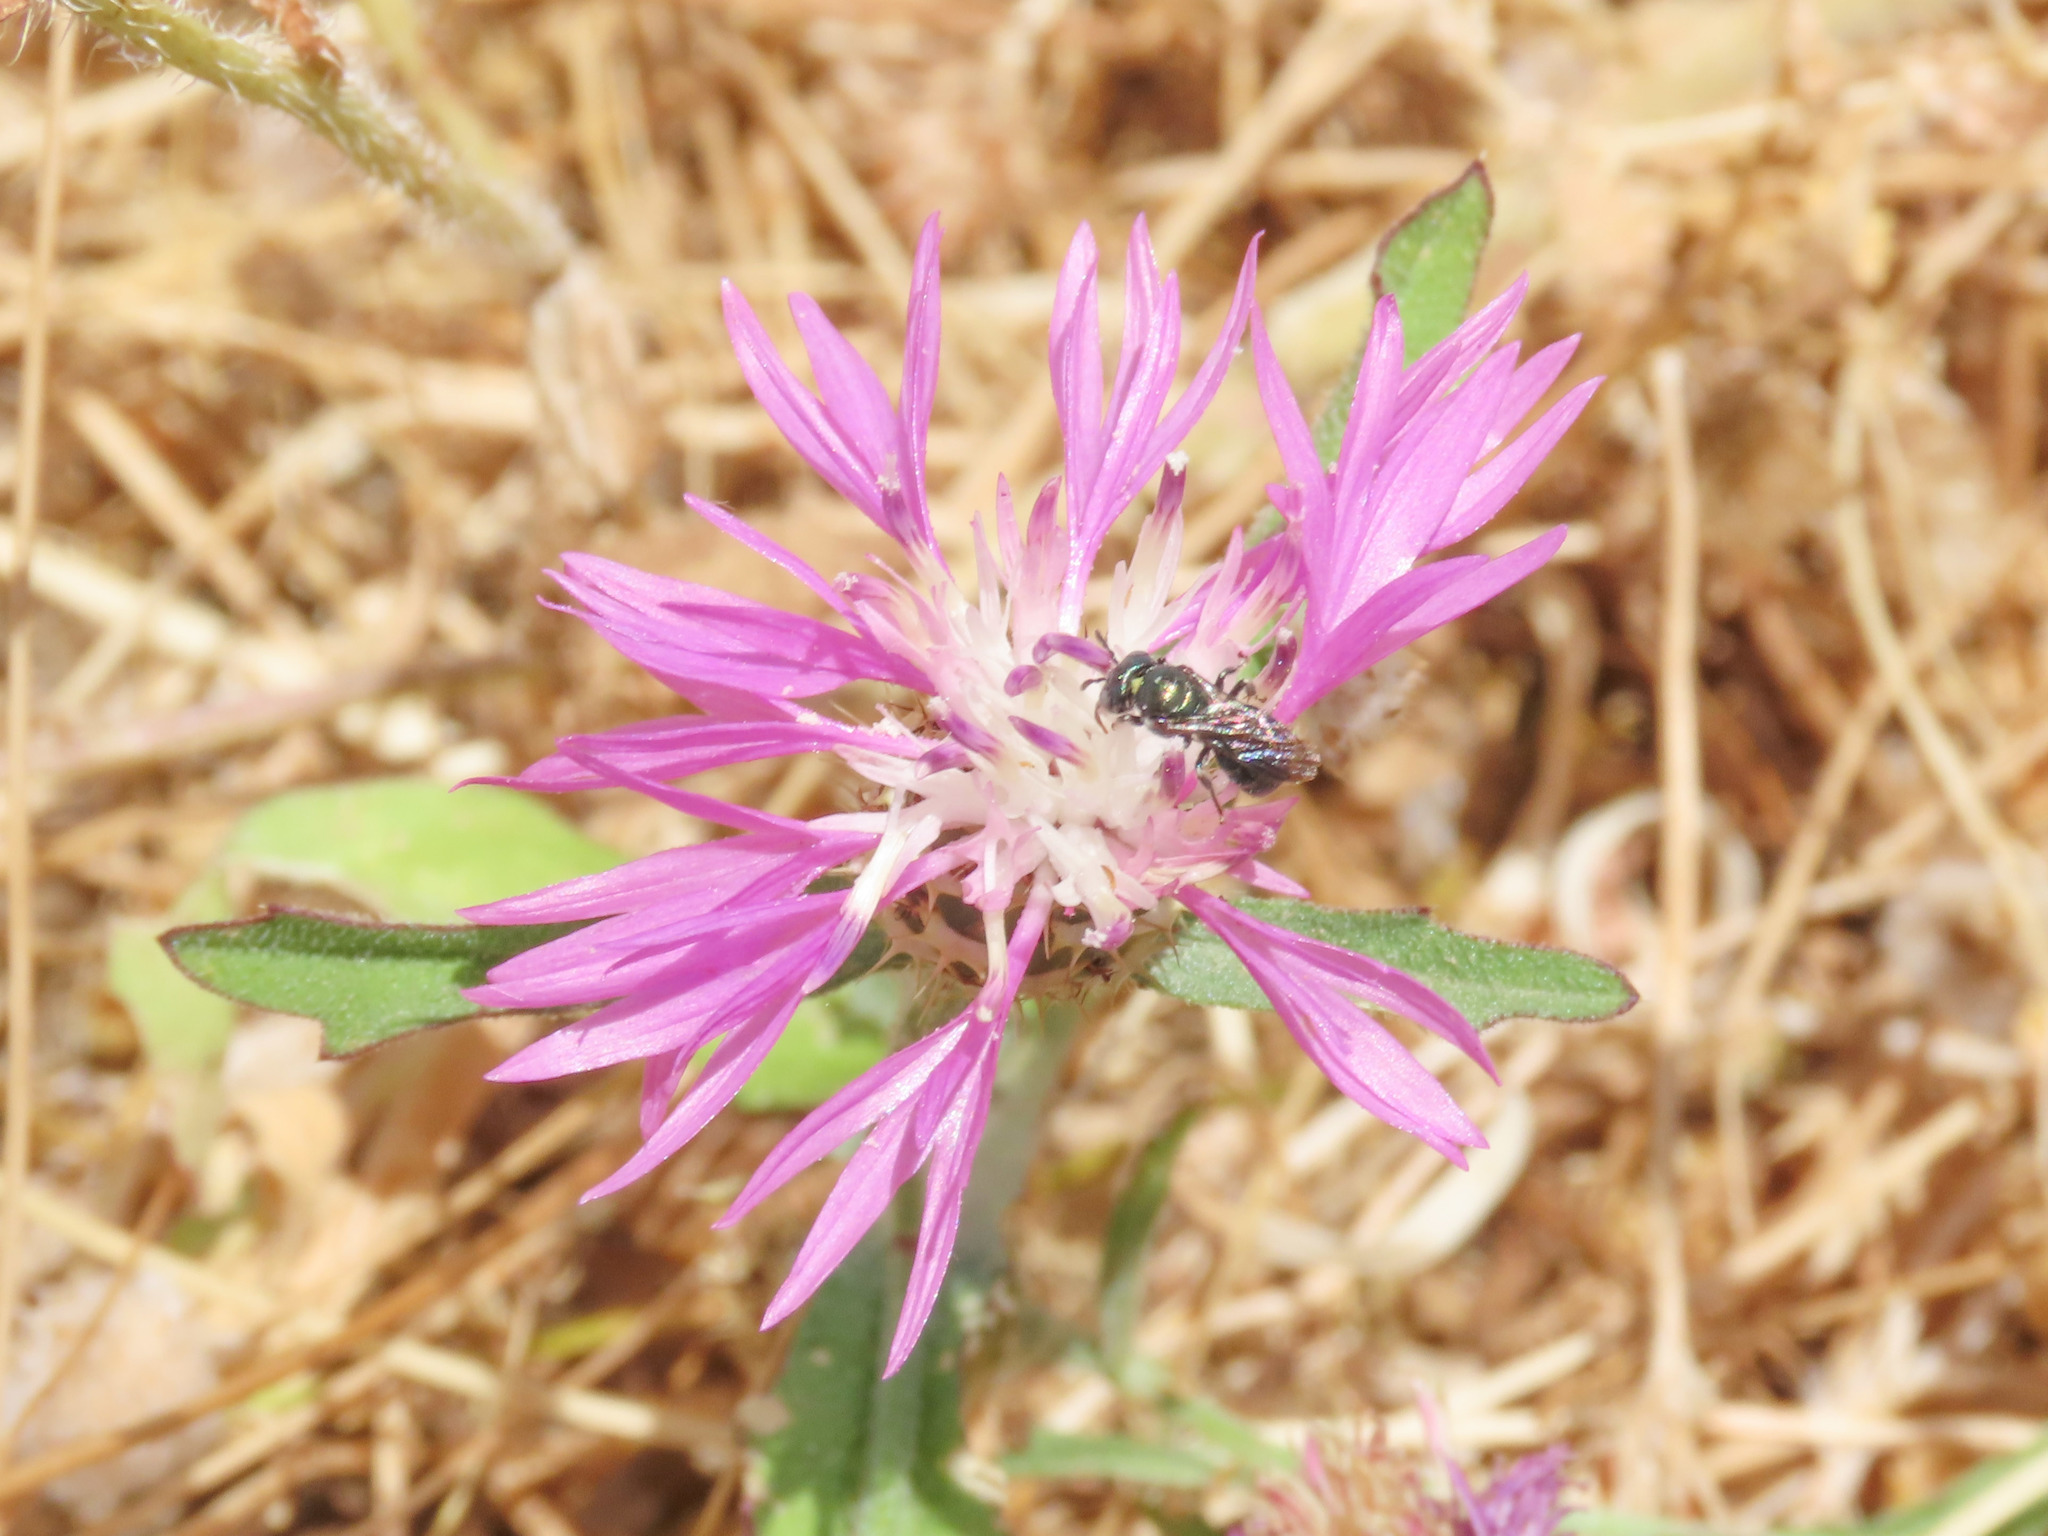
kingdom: Plantae
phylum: Tracheophyta
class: Magnoliopsida
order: Asterales
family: Asteraceae
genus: Centaurea
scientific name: Centaurea napifolia
